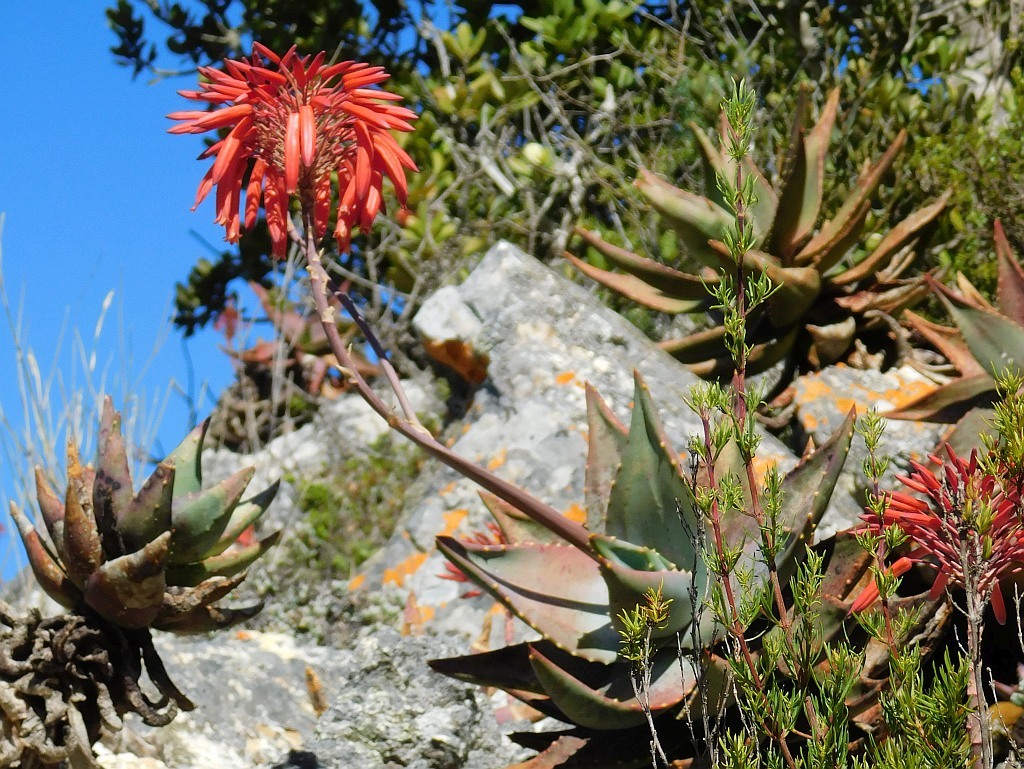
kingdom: Plantae
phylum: Tracheophyta
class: Liliopsida
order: Asparagales
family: Asphodelaceae
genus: Aloe
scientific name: Aloe perfoliata
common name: Mitra aloe
